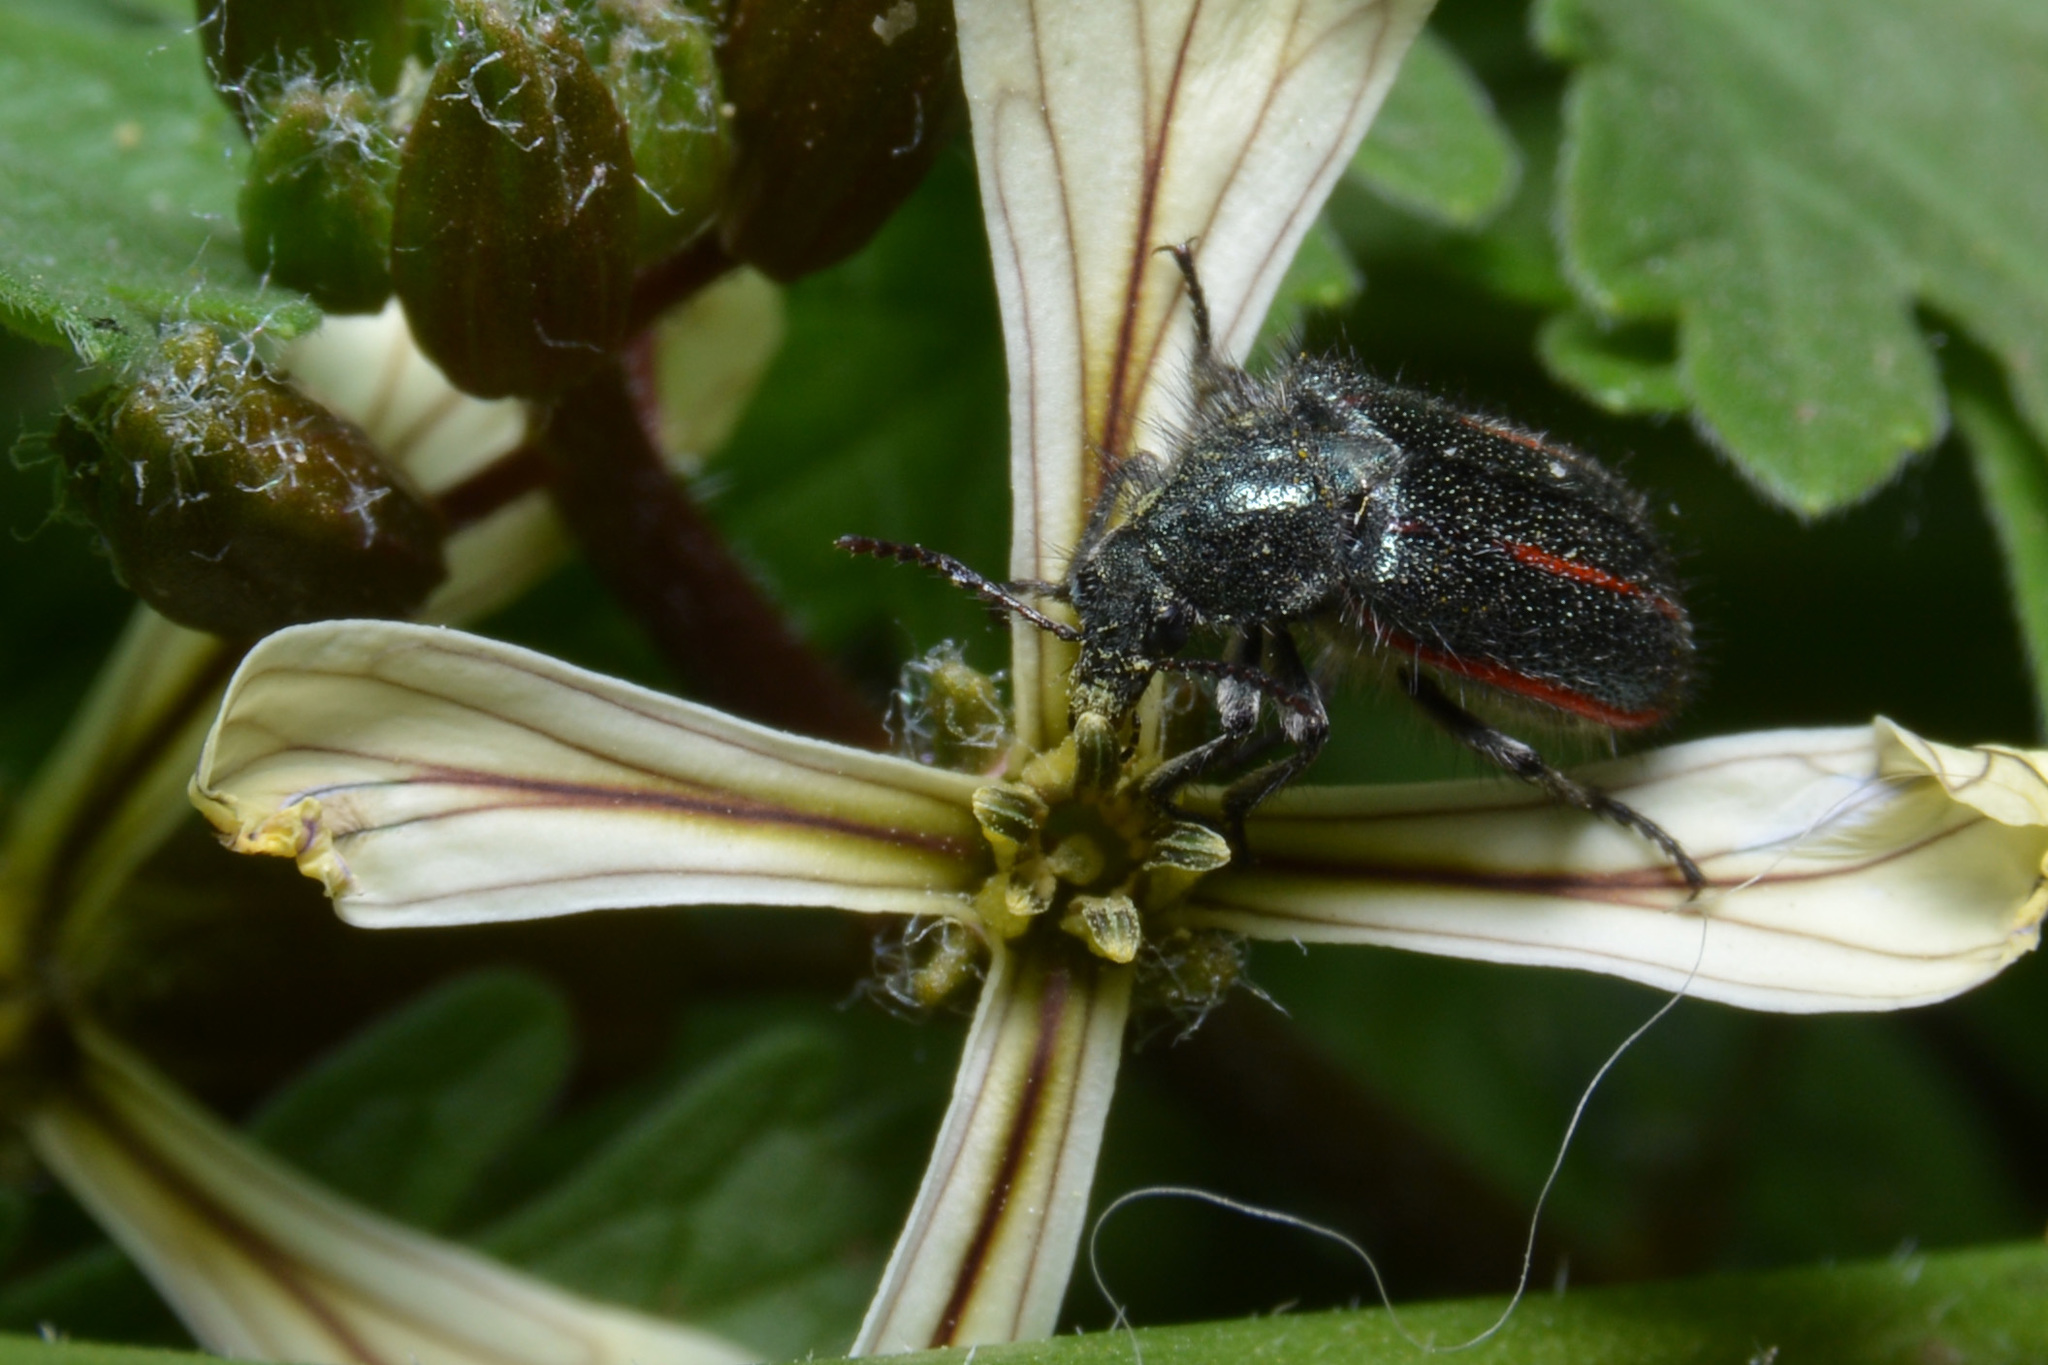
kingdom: Plantae
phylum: Tracheophyta
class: Magnoliopsida
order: Brassicales
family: Brassicaceae
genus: Eruca
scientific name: Eruca vesicaria
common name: Garden rocket
